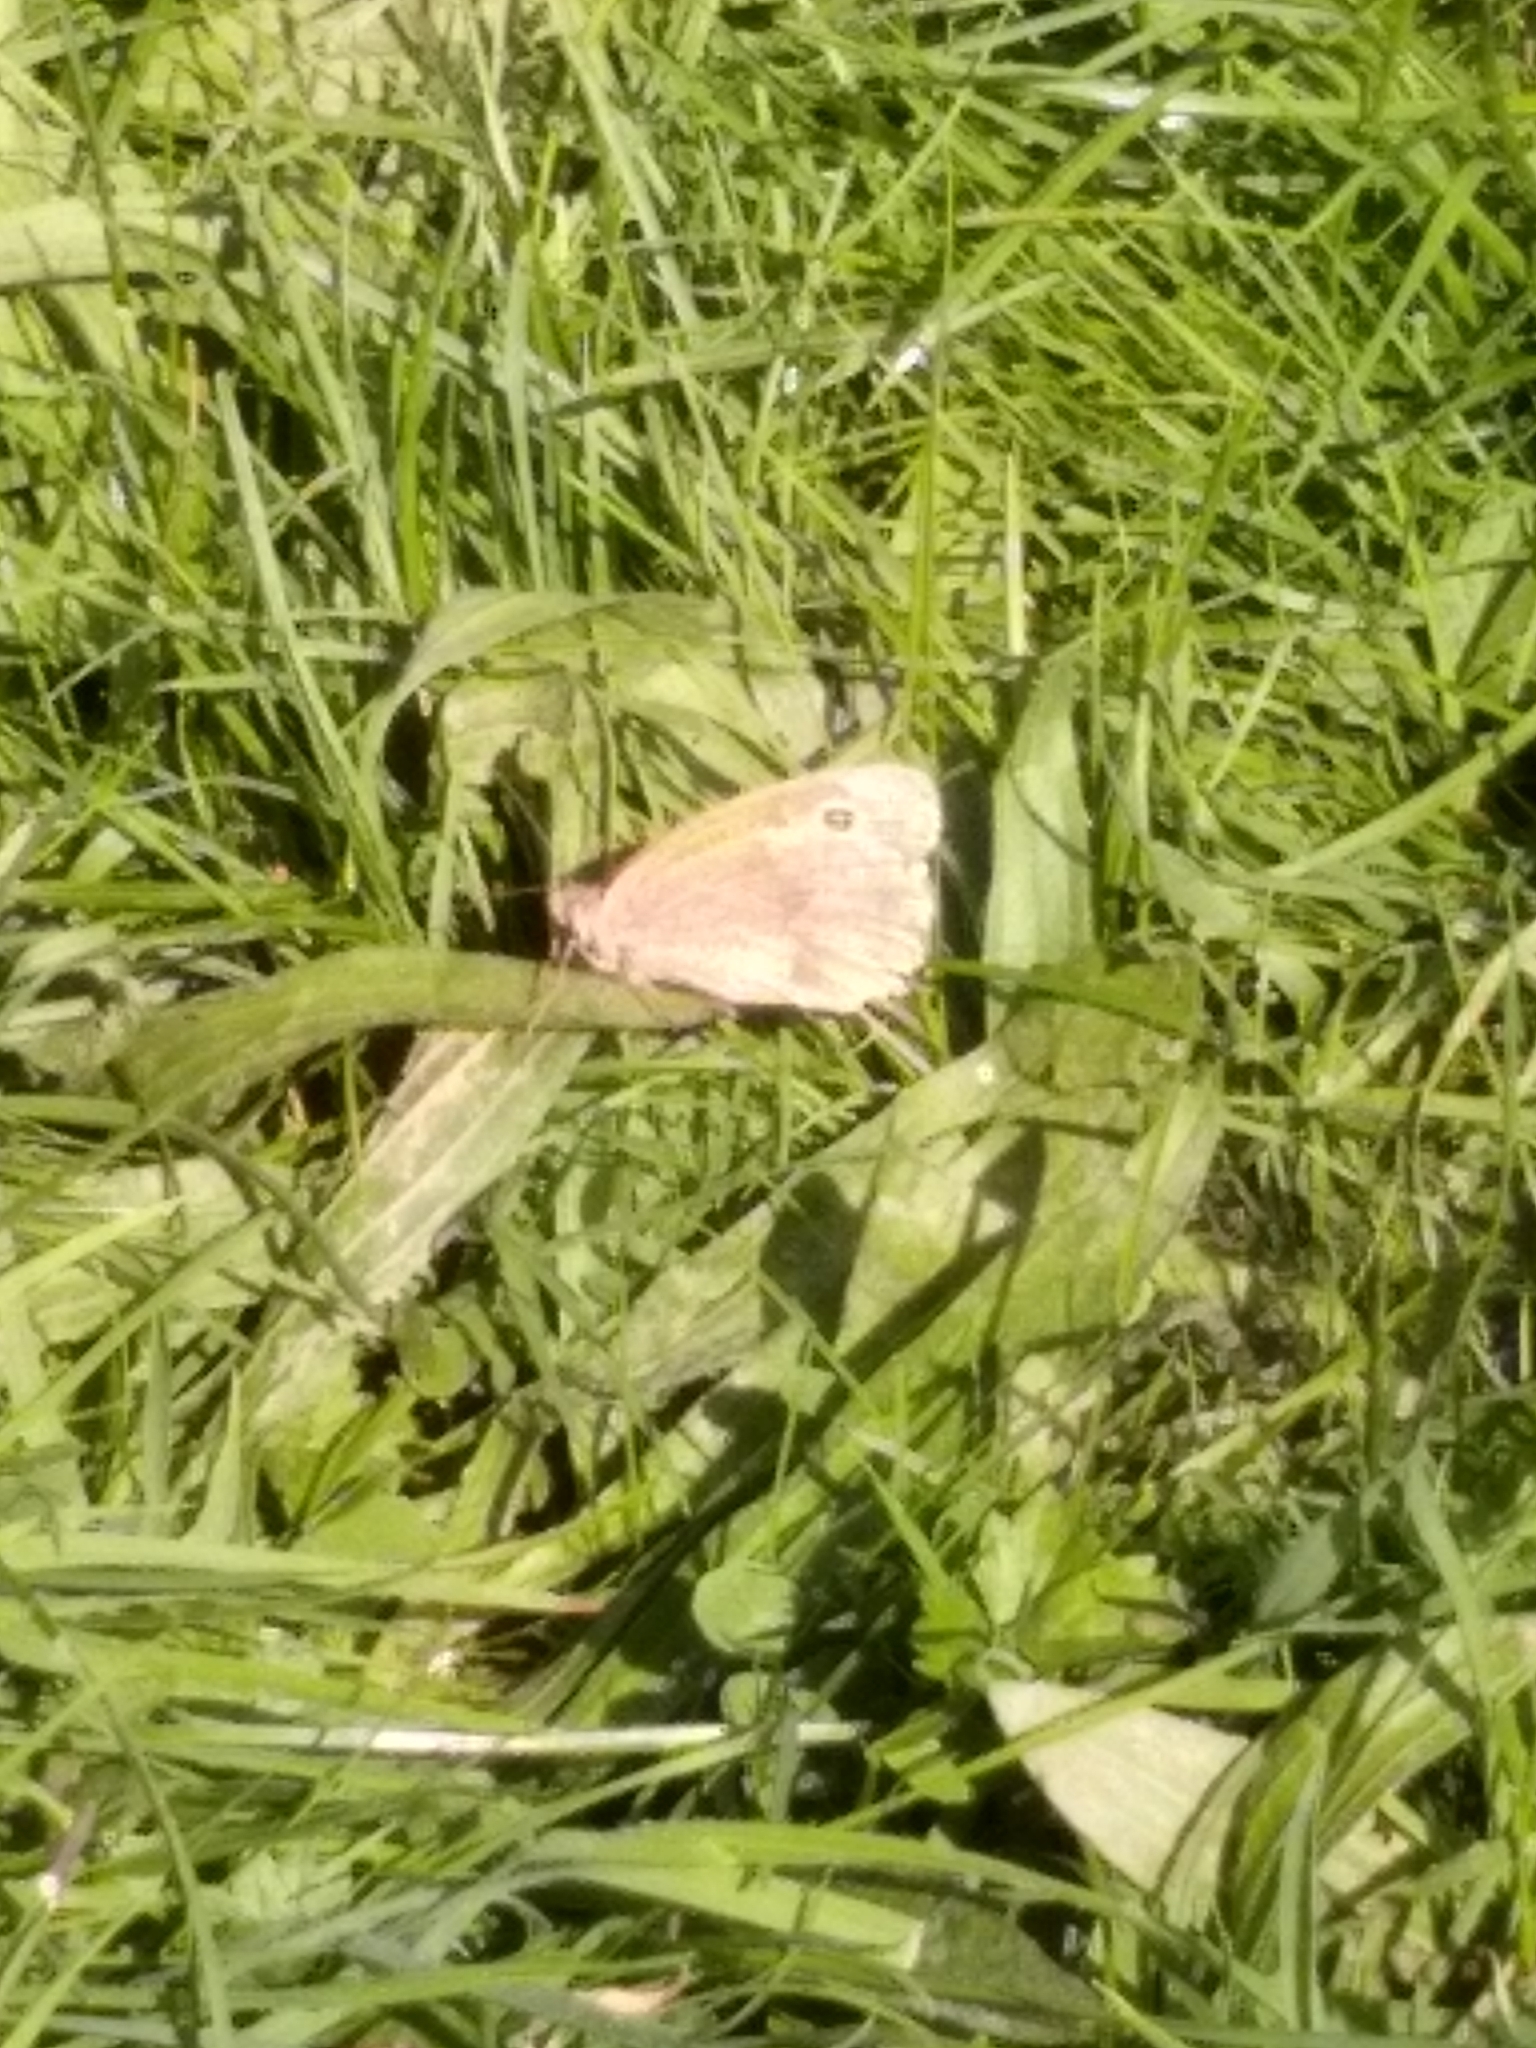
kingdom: Animalia
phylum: Arthropoda
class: Insecta
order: Lepidoptera
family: Nymphalidae
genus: Maniola
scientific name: Maniola jurtina
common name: Meadow brown
